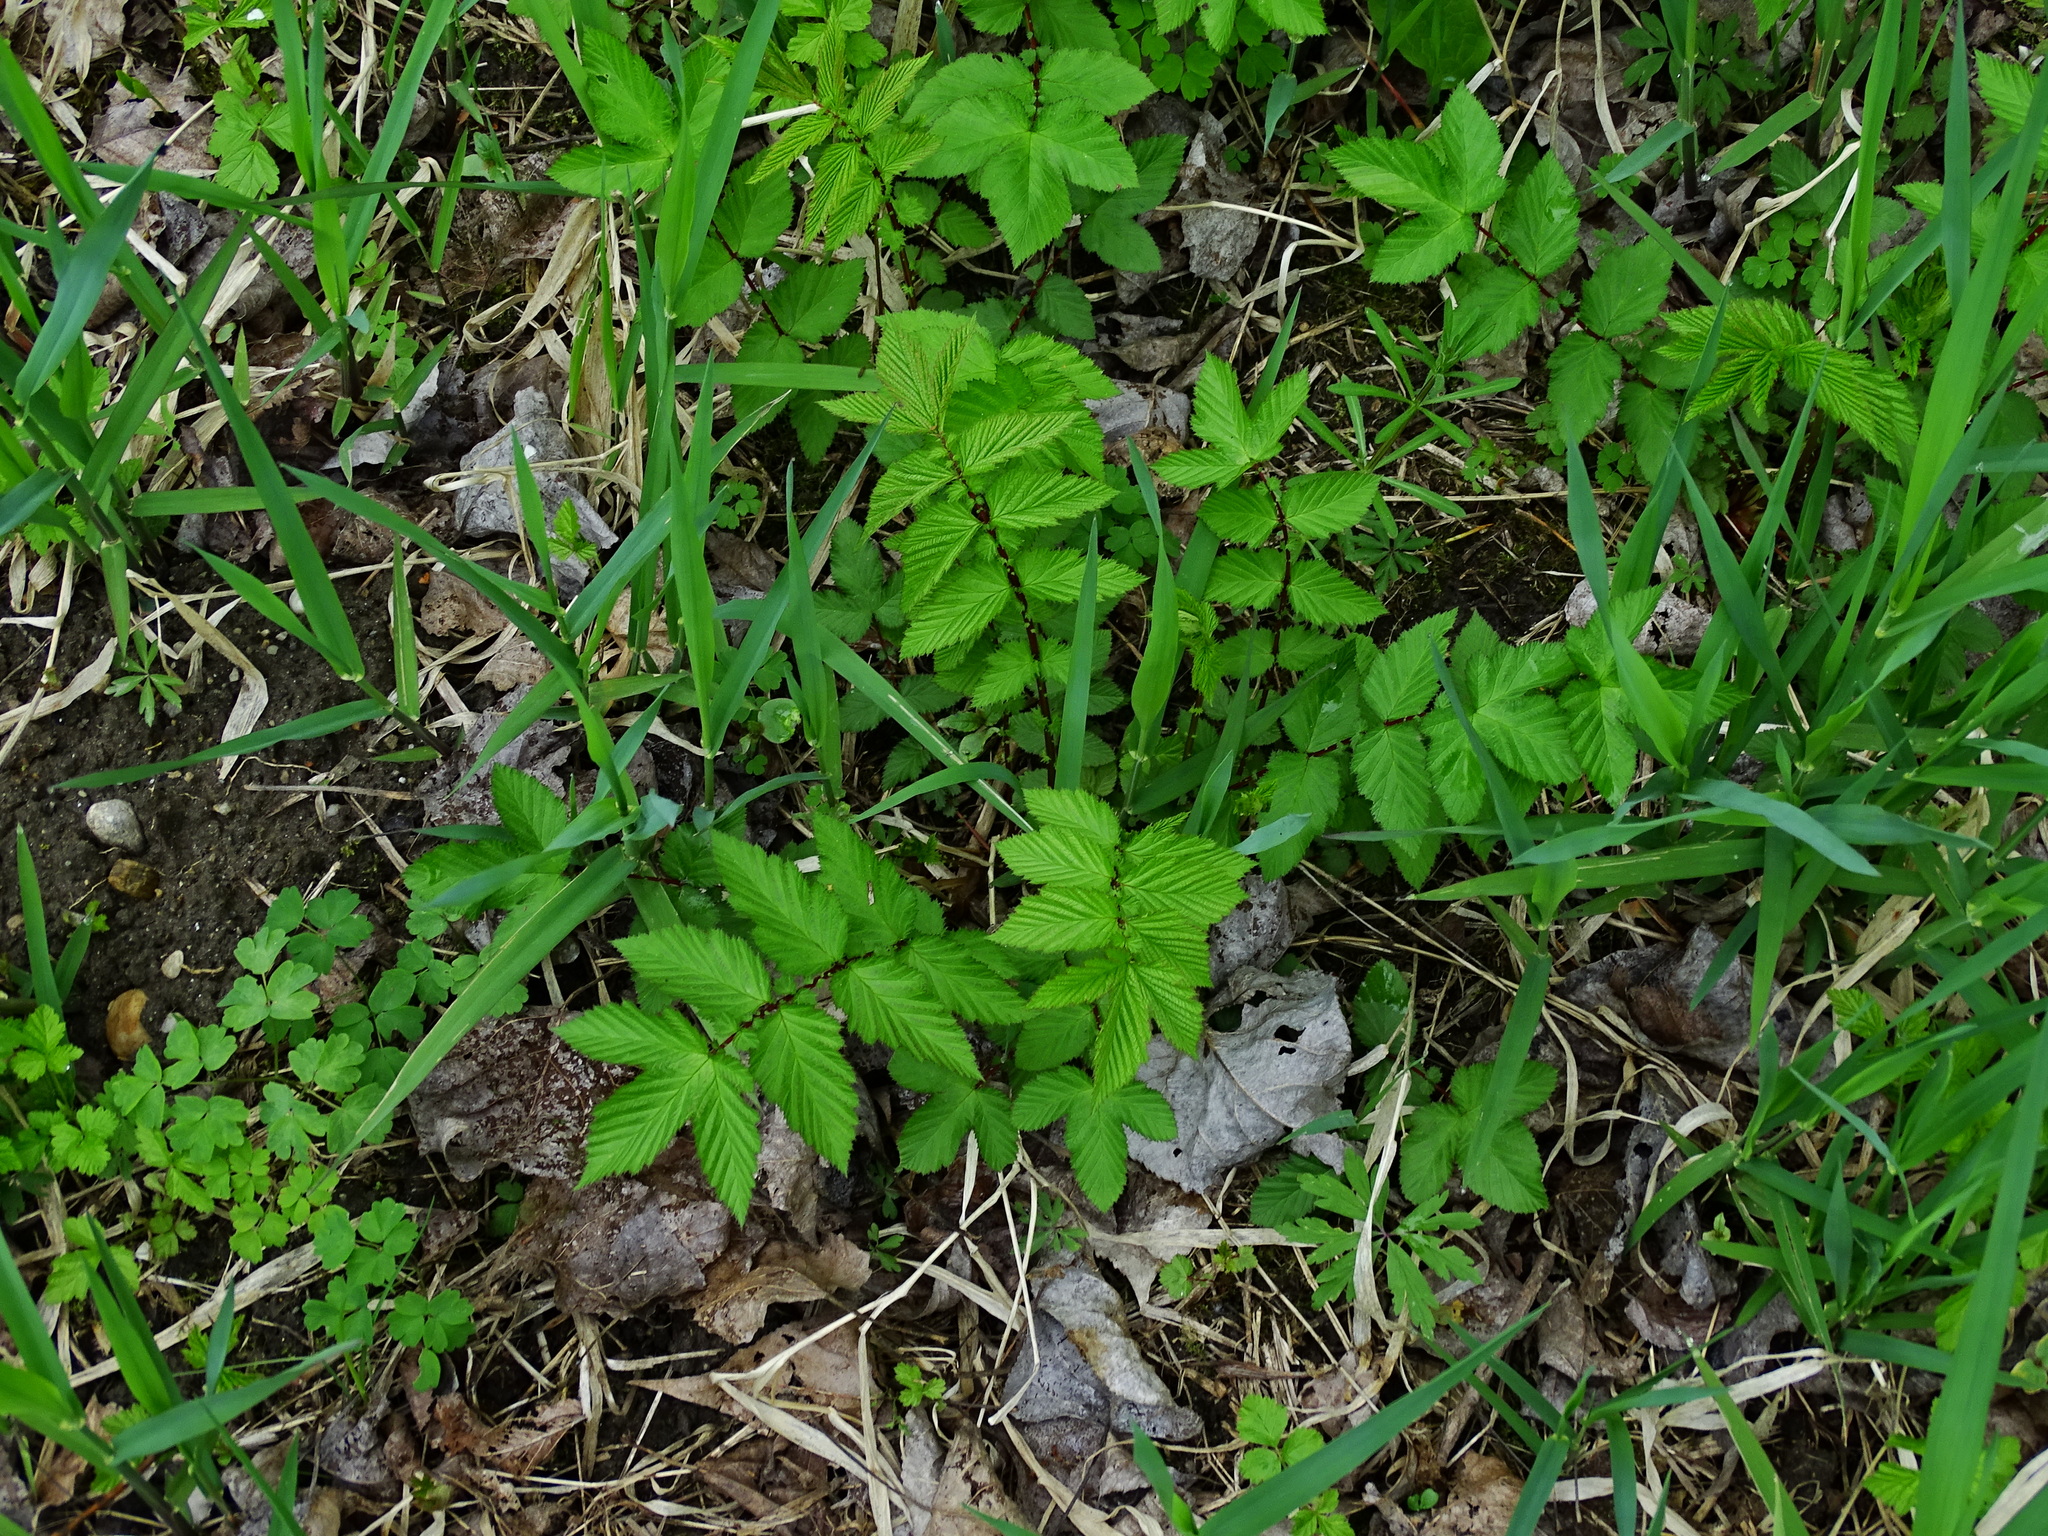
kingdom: Plantae
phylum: Tracheophyta
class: Magnoliopsida
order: Rosales
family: Rosaceae
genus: Filipendula
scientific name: Filipendula ulmaria
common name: Meadowsweet
